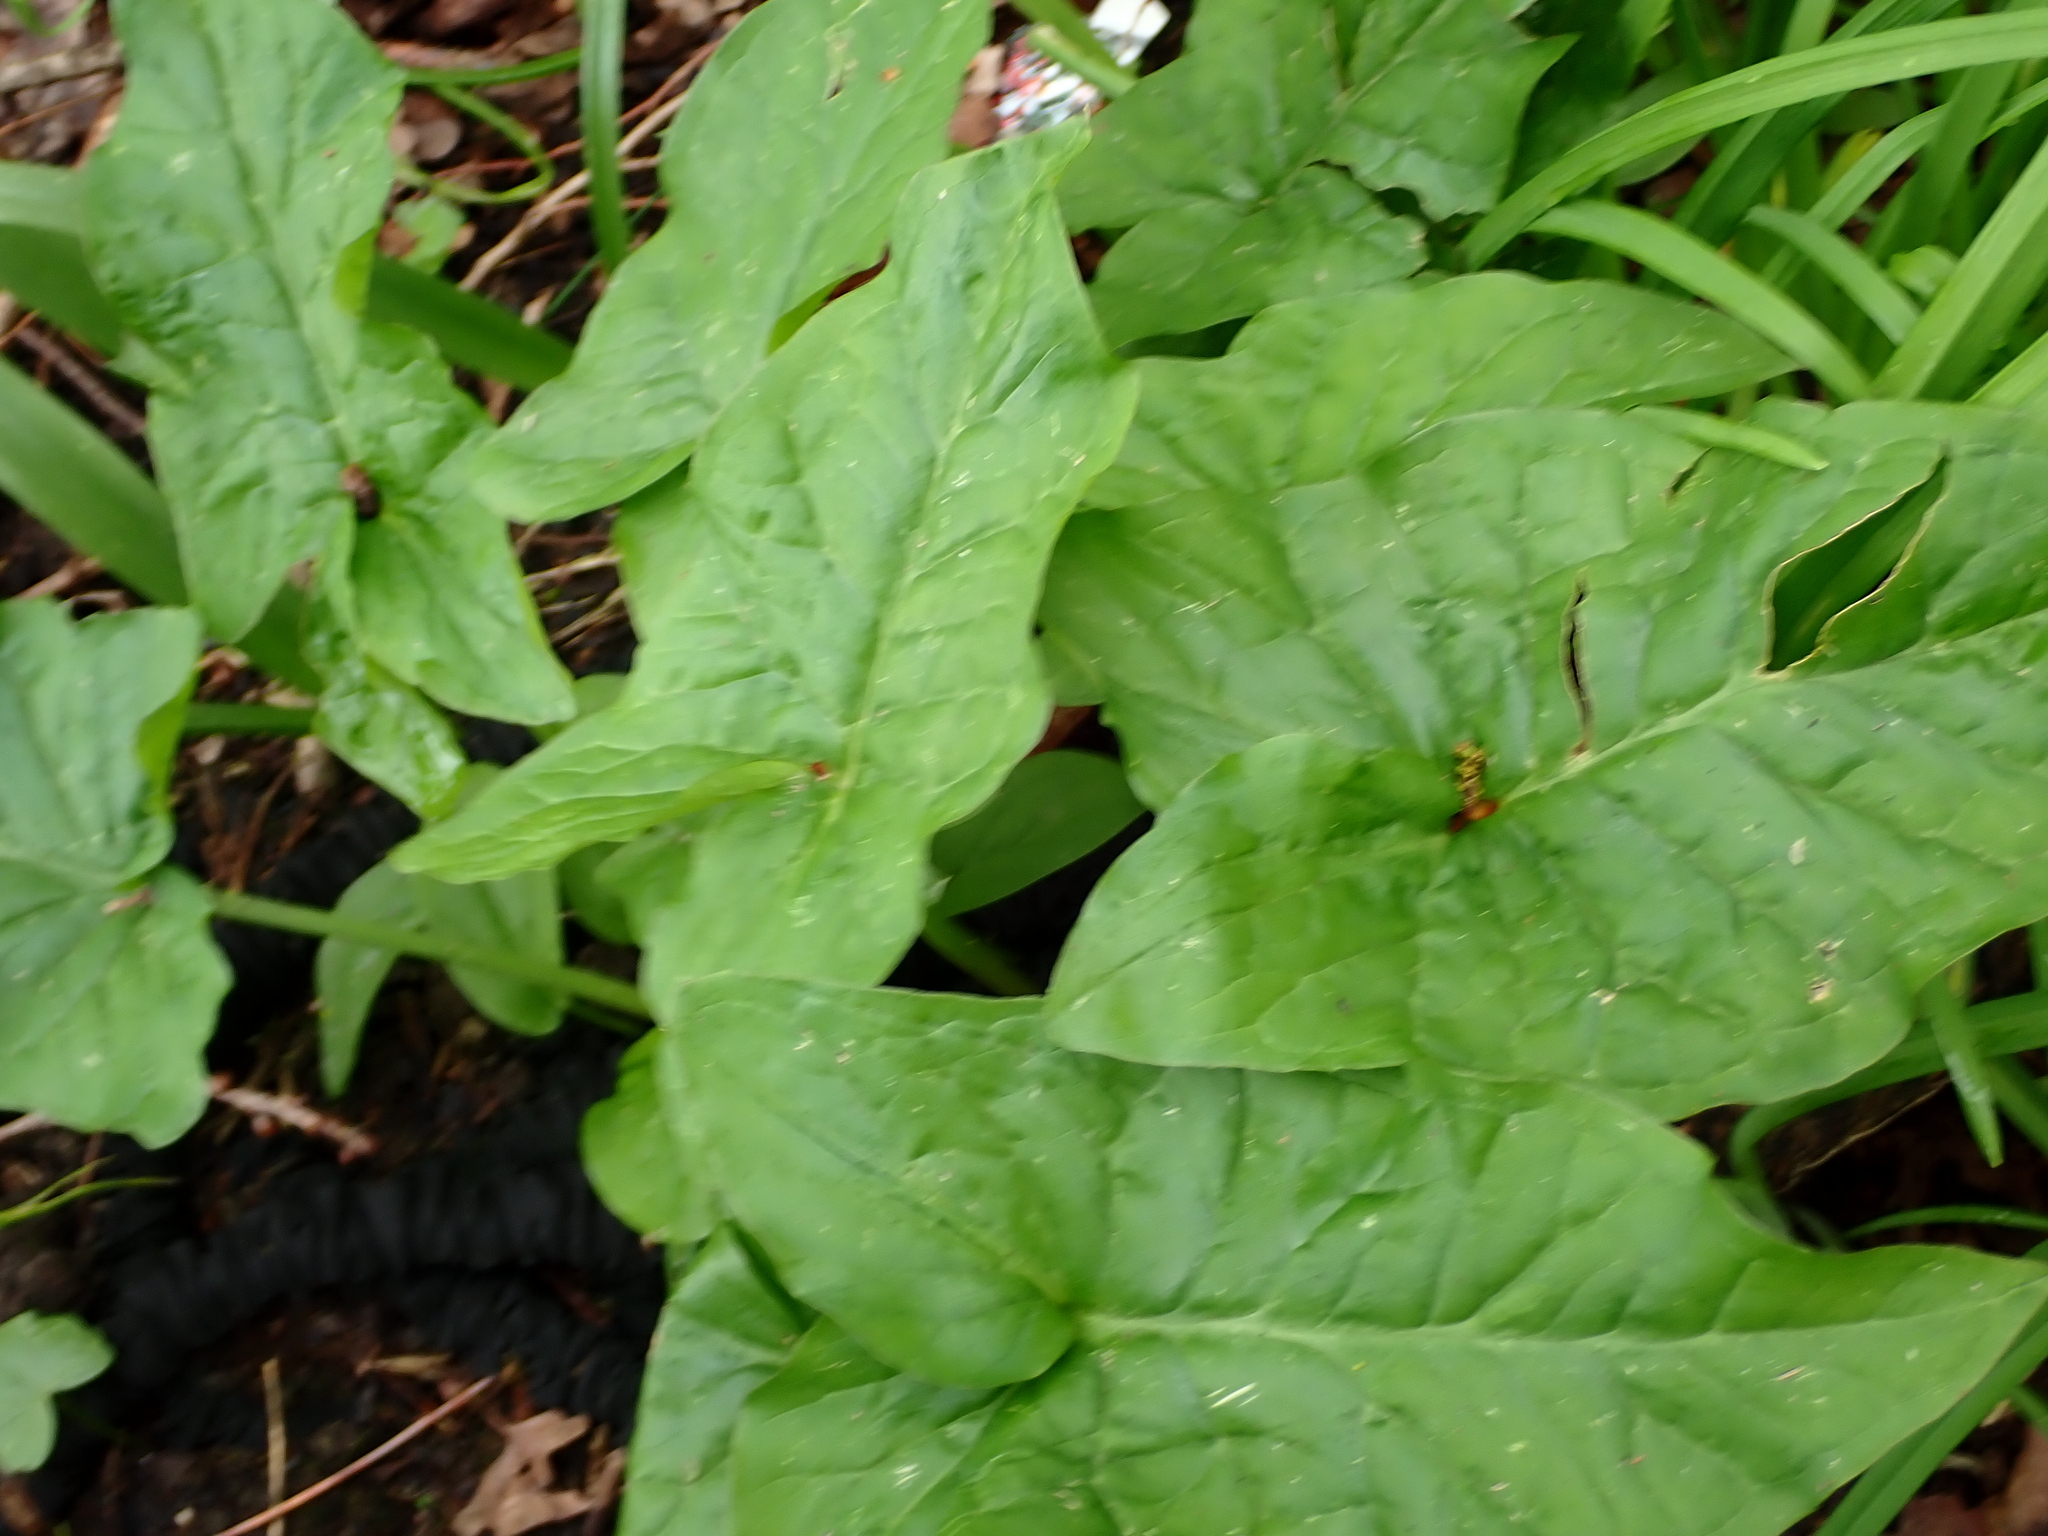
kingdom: Plantae
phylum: Tracheophyta
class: Liliopsida
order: Alismatales
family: Araceae
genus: Arum
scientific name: Arum maculatum
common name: Lords-and-ladies
